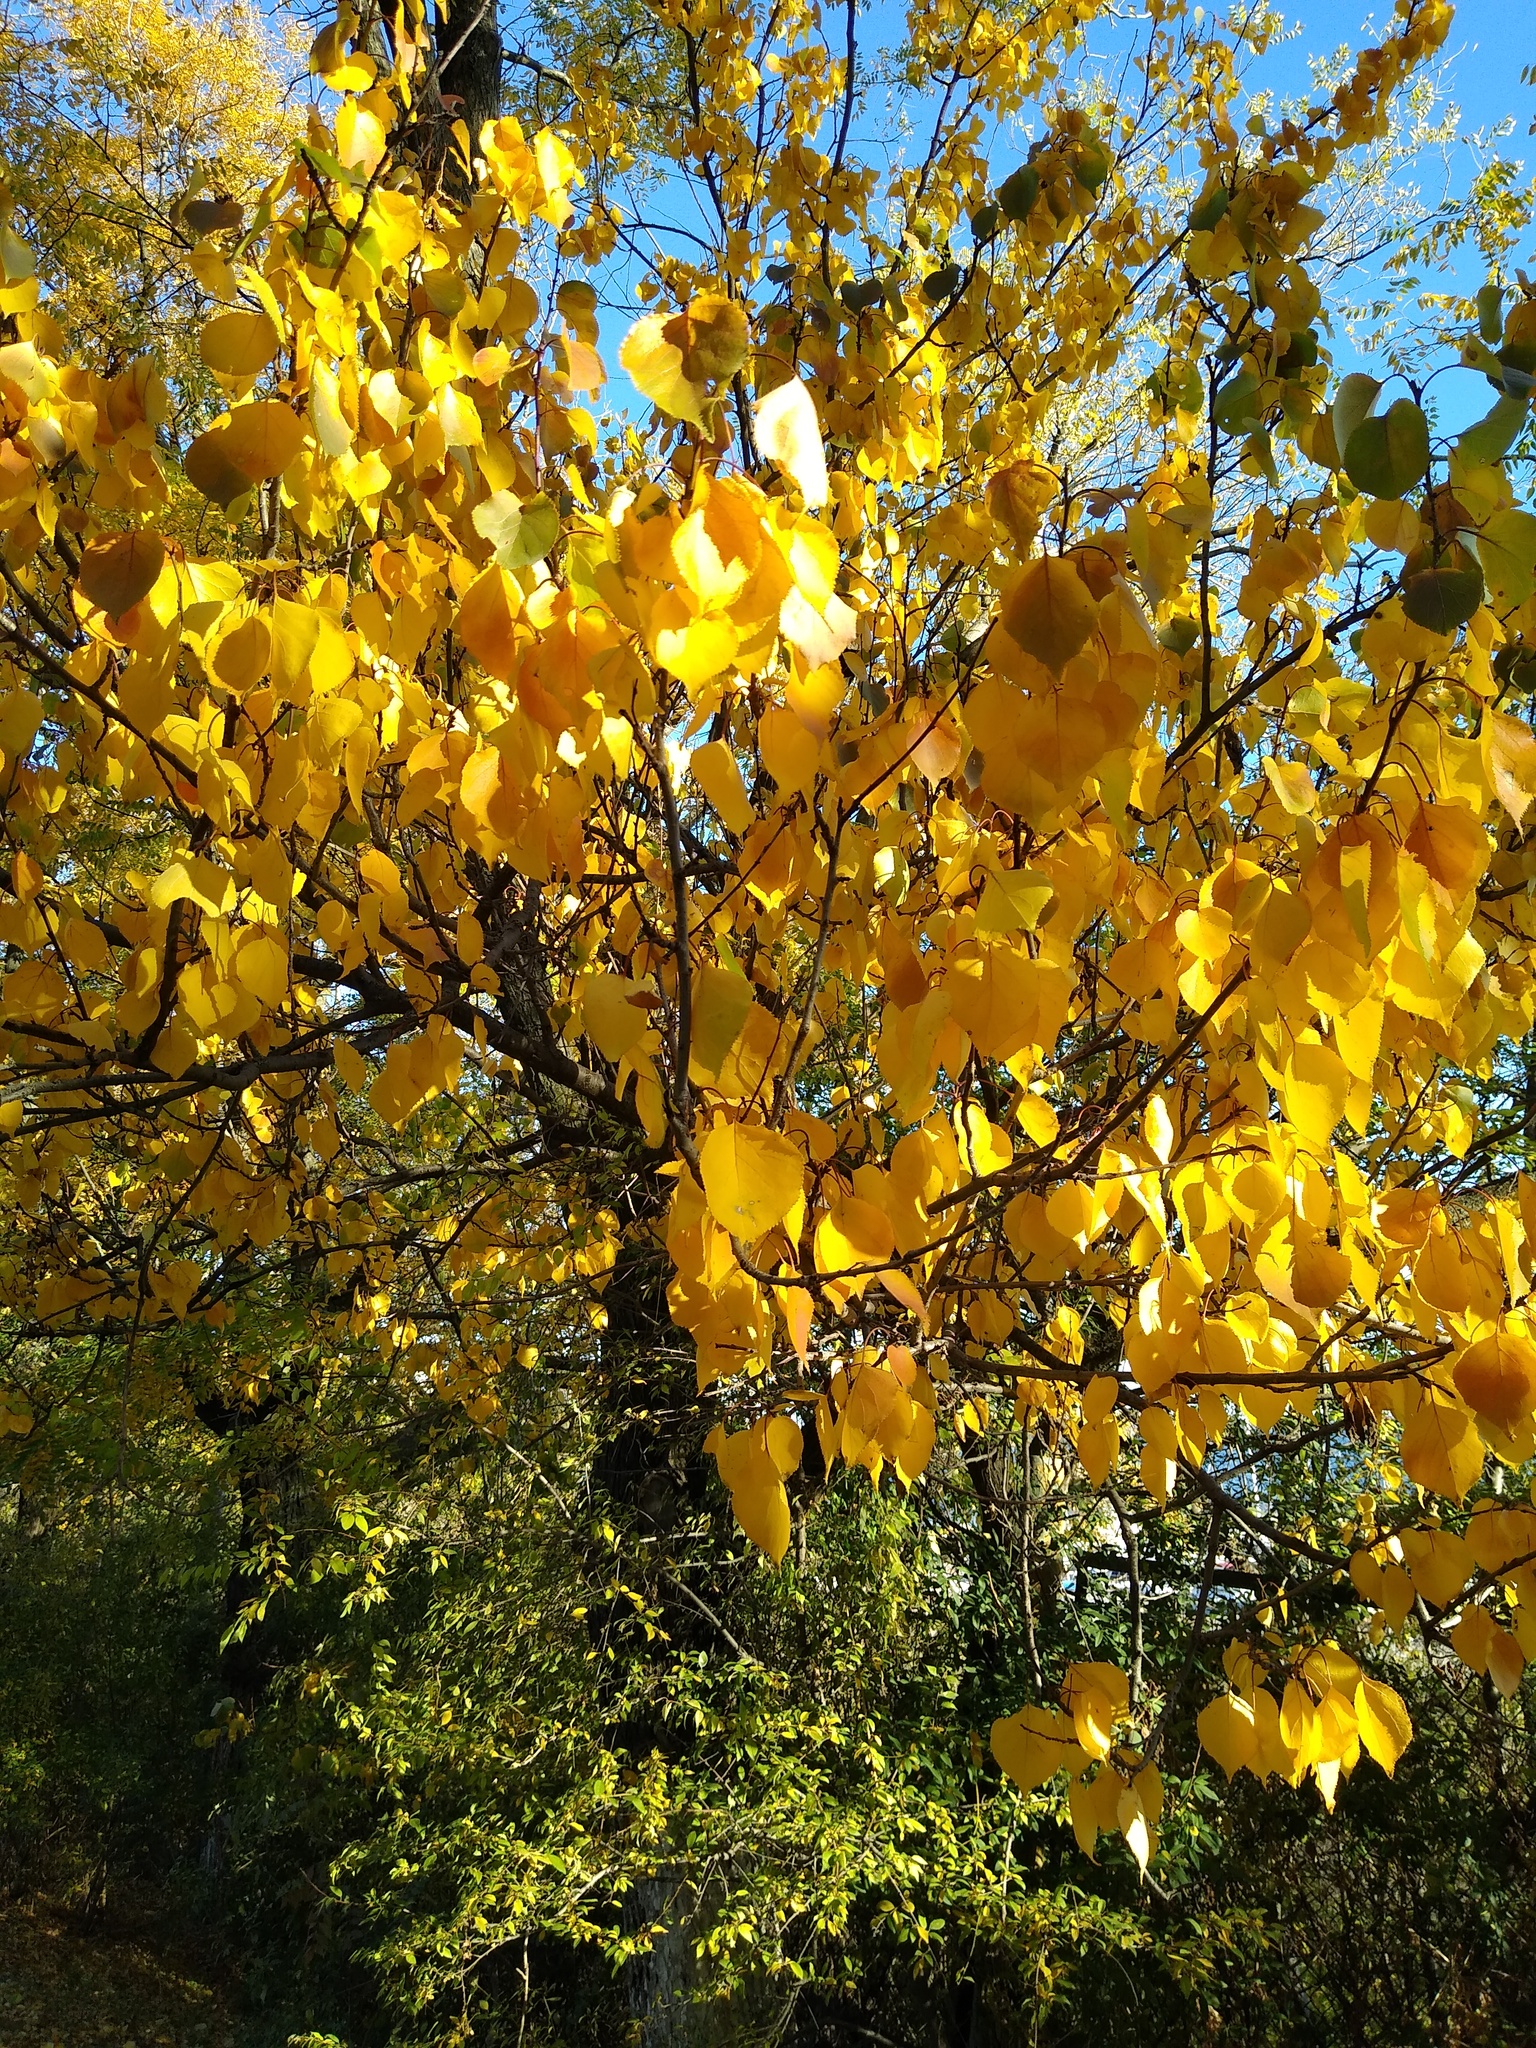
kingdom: Plantae
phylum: Tracheophyta
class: Magnoliopsida
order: Rosales
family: Rosaceae
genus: Prunus
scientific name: Prunus armeniaca
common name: Apricot
